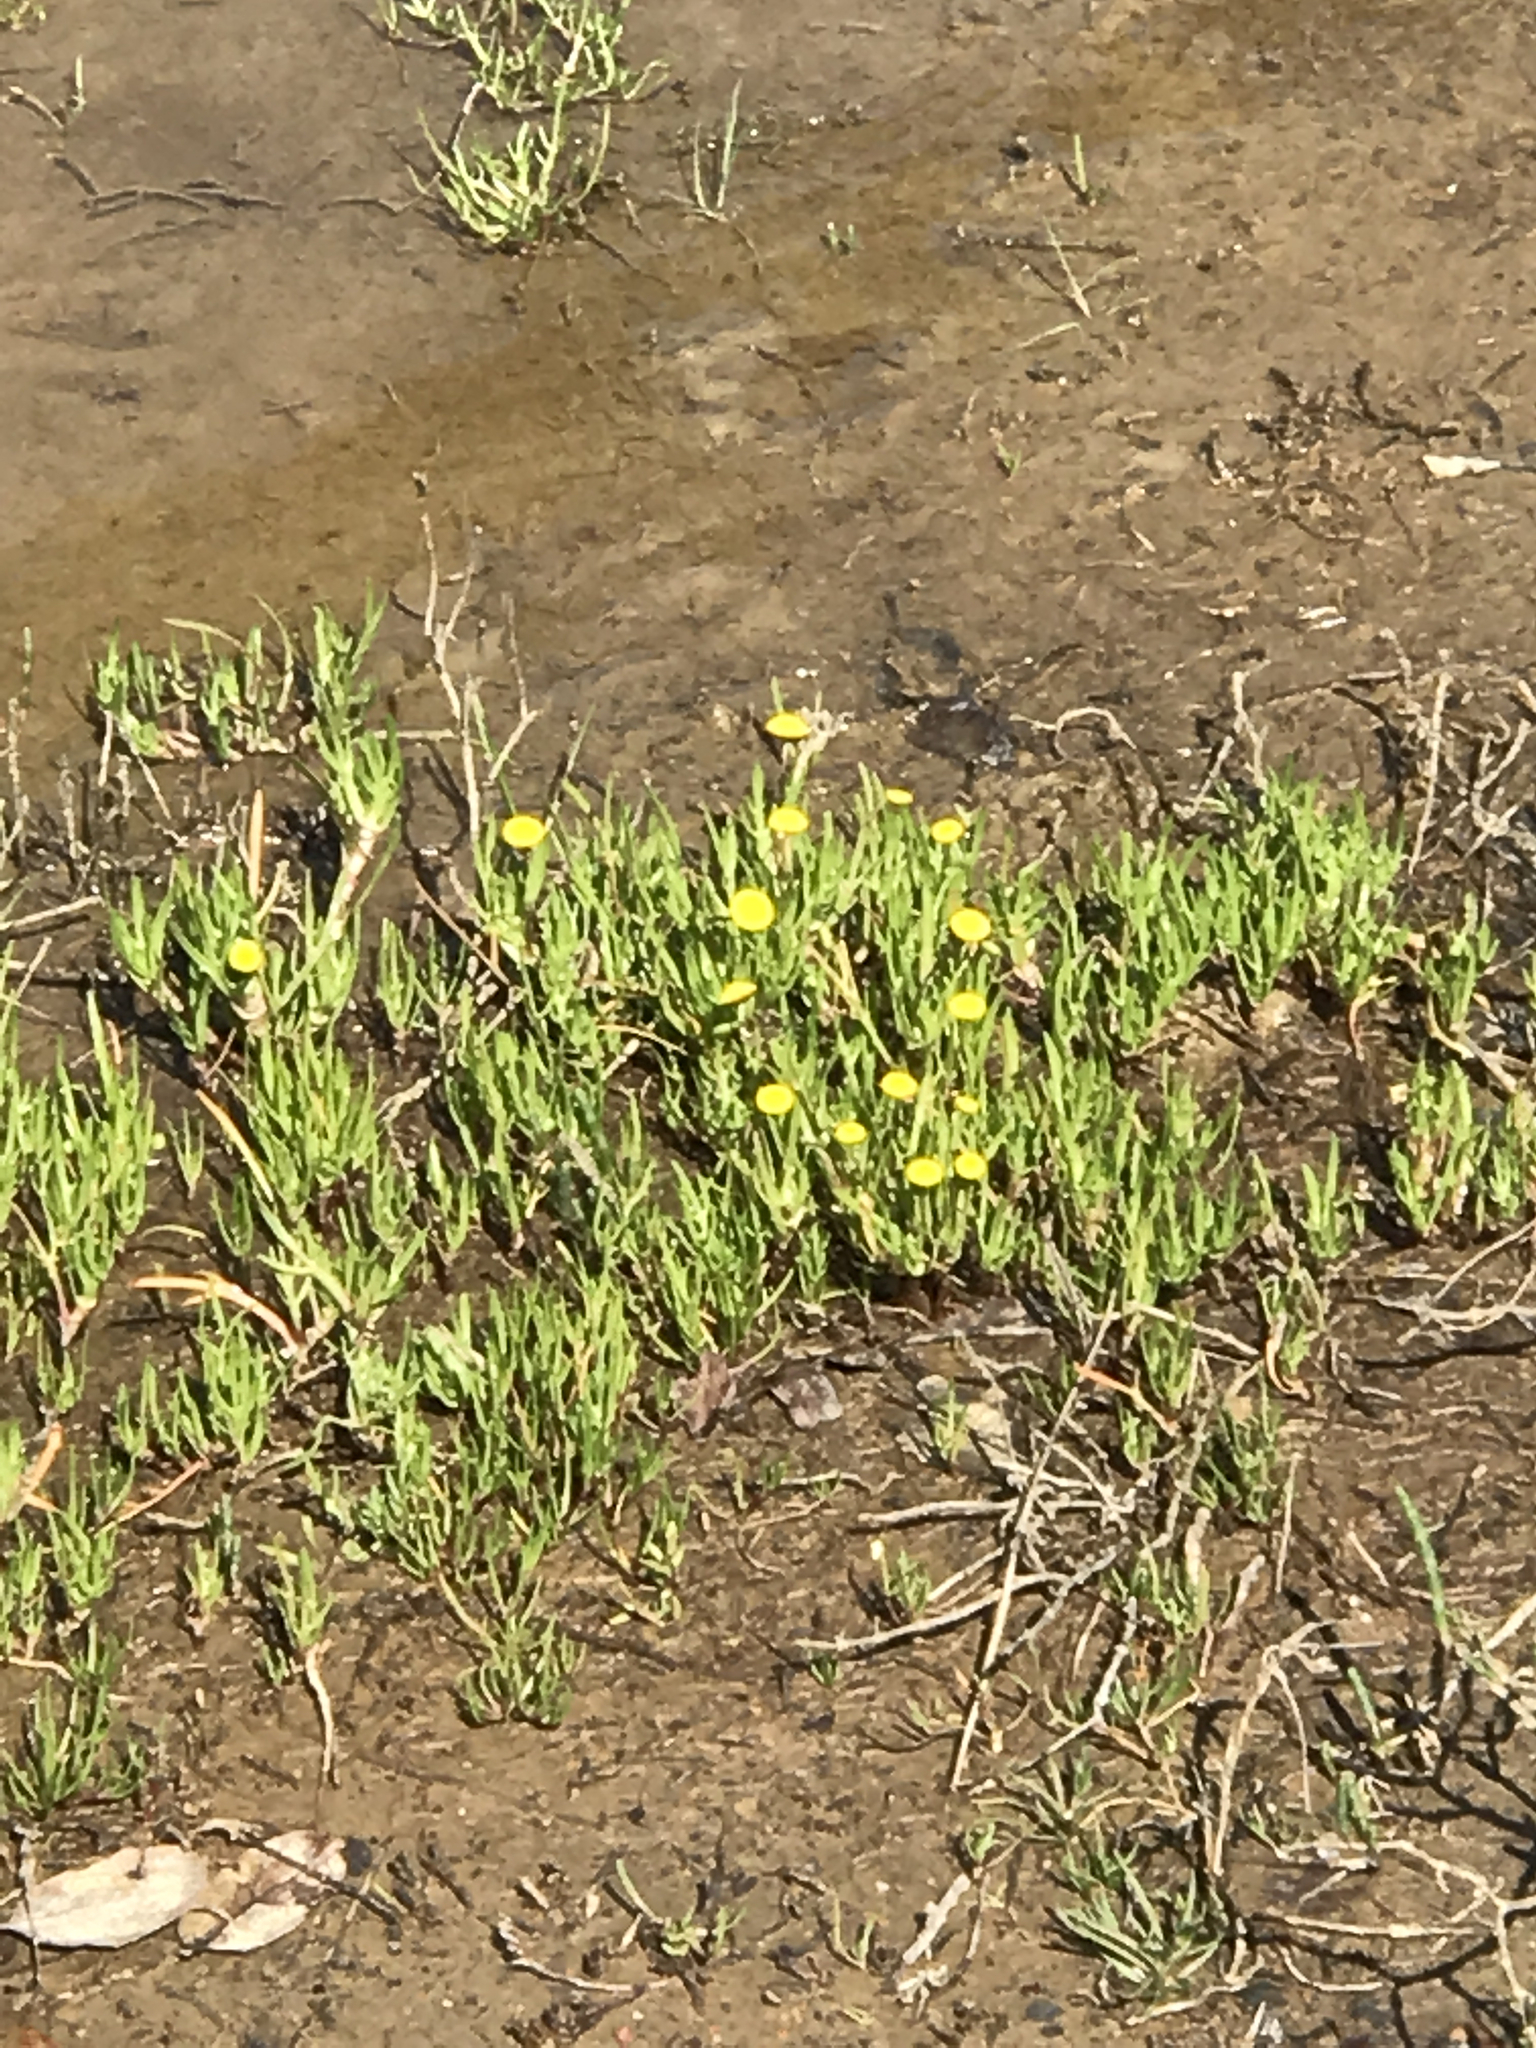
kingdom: Plantae
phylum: Tracheophyta
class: Magnoliopsida
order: Asterales
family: Asteraceae
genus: Cotula
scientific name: Cotula coronopifolia
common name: Buttonweed
